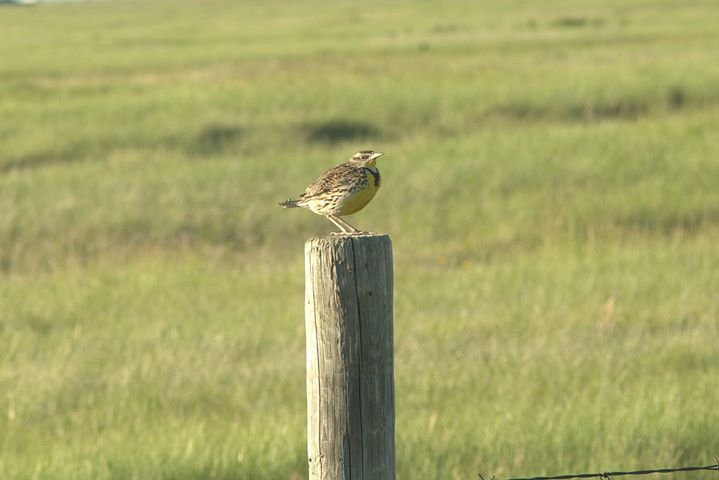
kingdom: Animalia
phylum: Chordata
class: Aves
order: Passeriformes
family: Icteridae
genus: Sturnella
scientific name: Sturnella neglecta
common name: Western meadowlark
